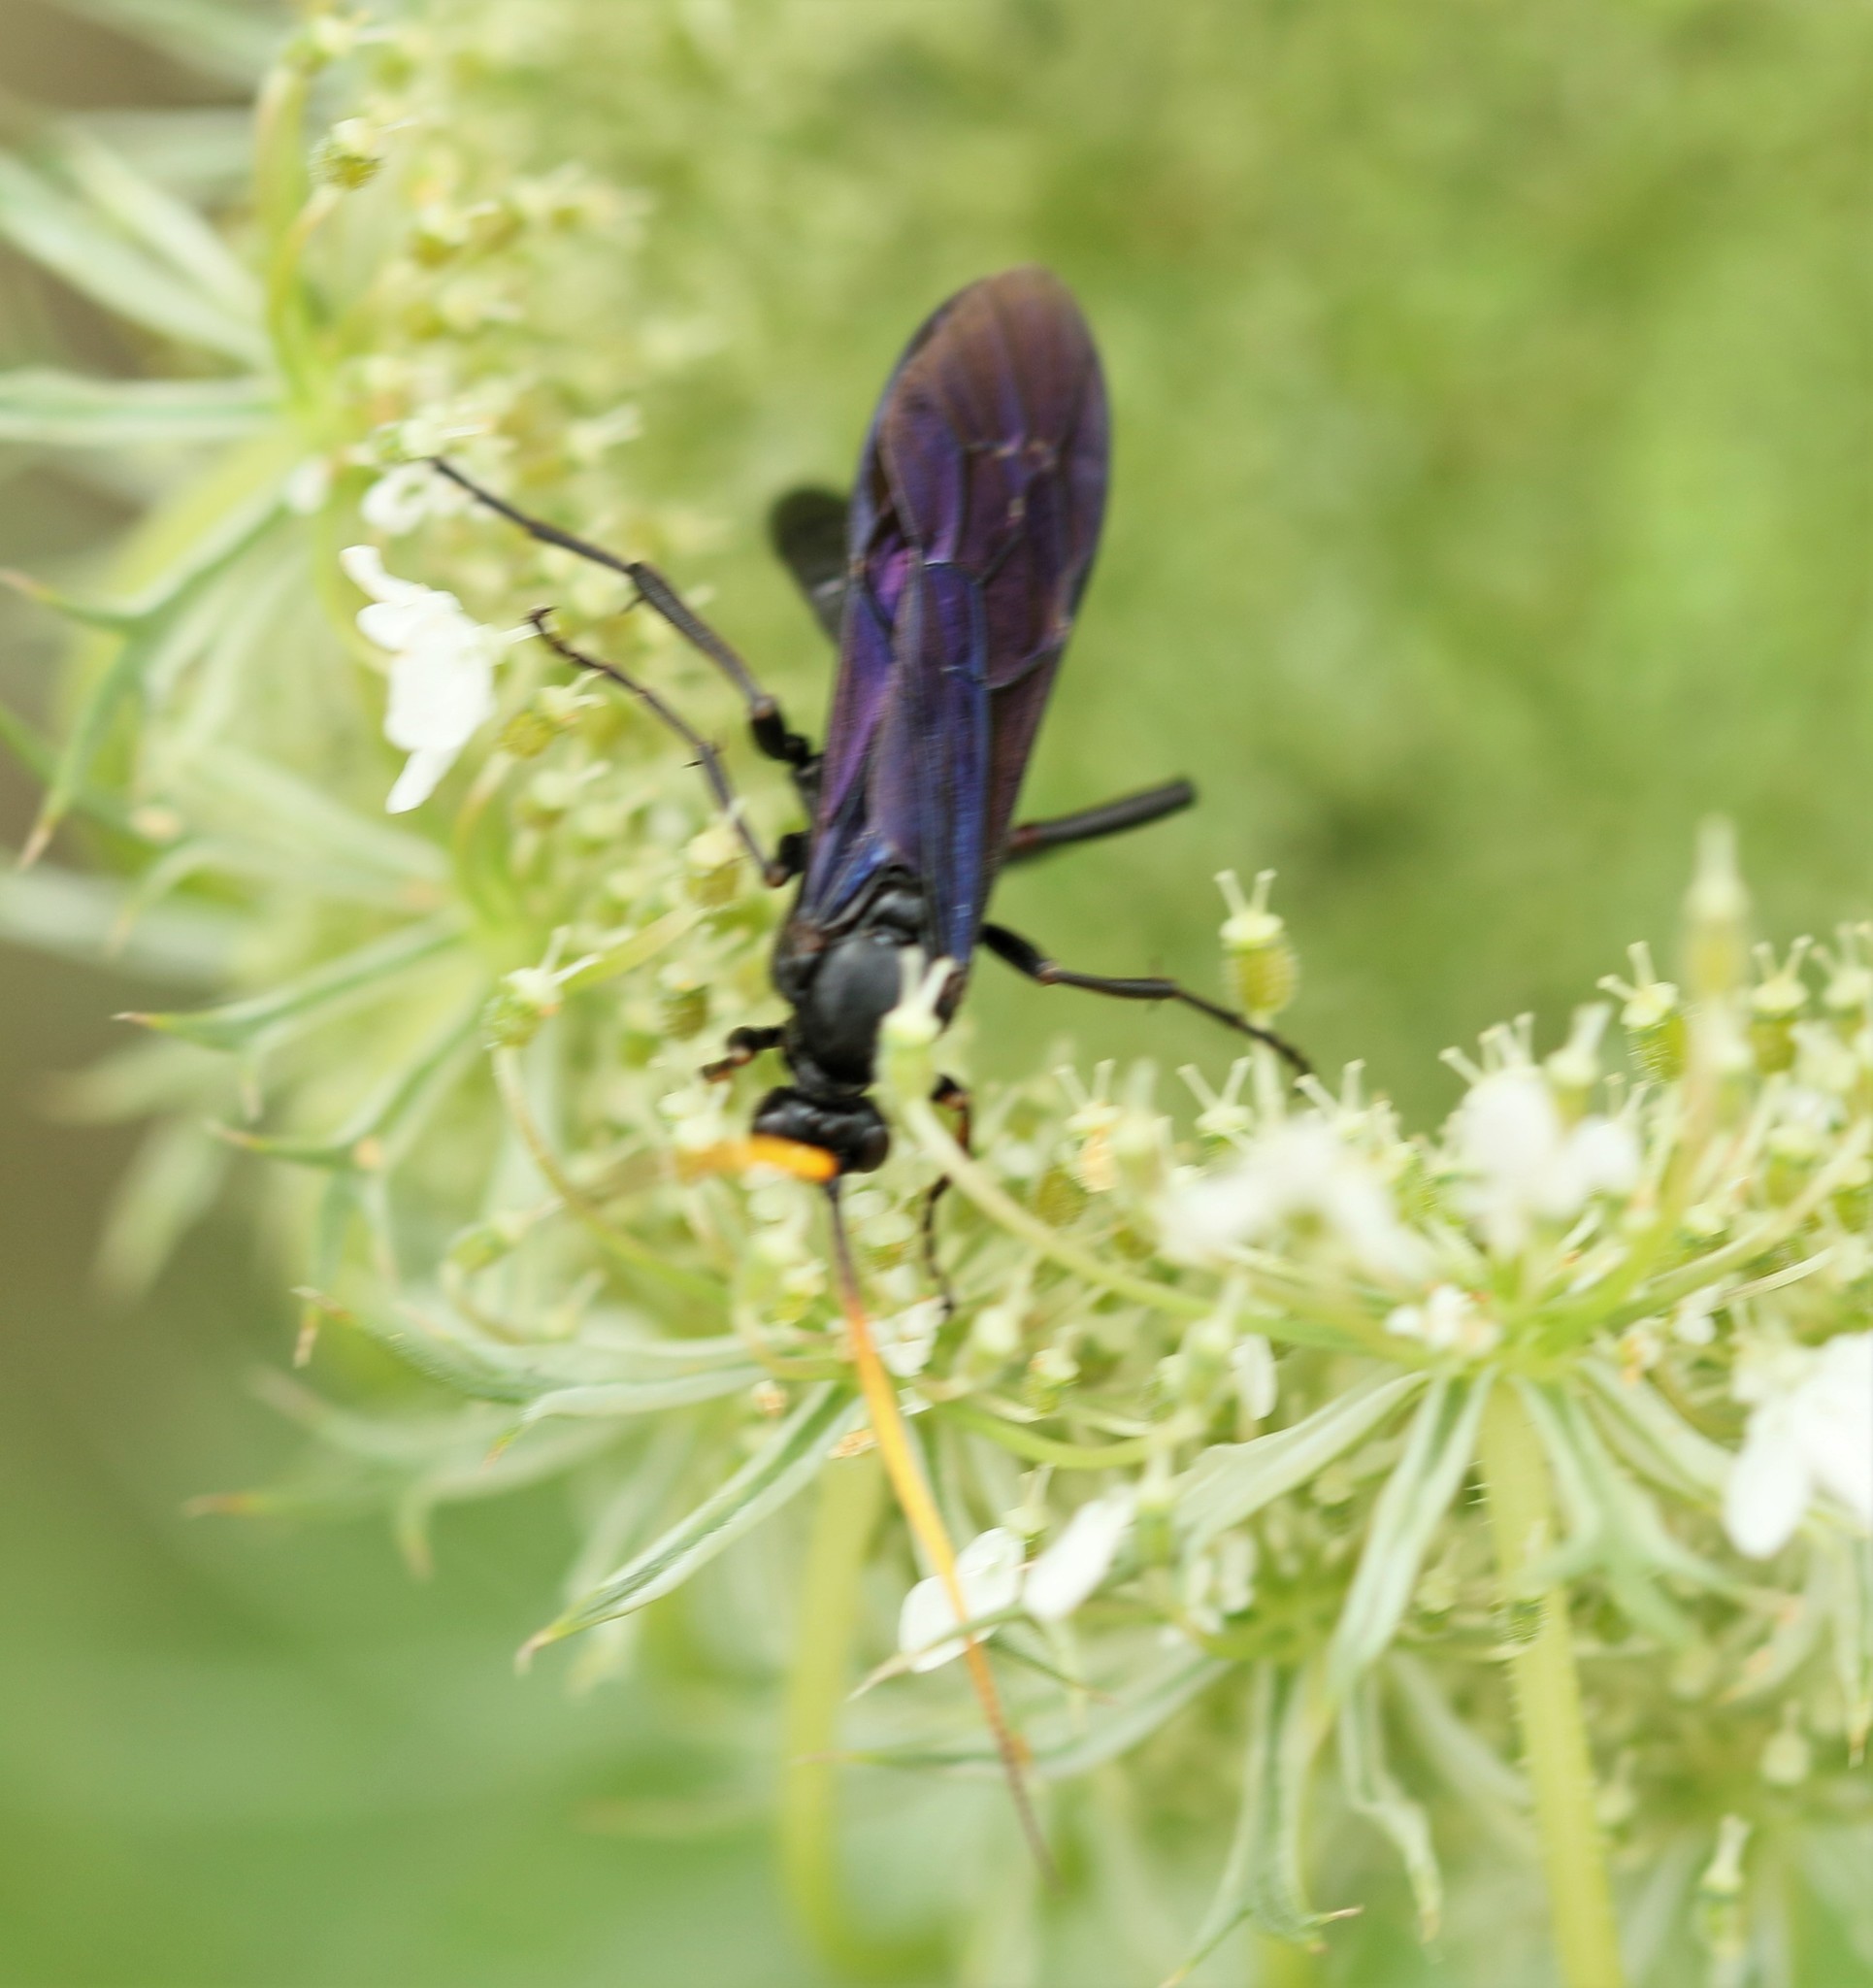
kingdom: Animalia
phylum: Arthropoda
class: Insecta
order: Hymenoptera
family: Ichneumonidae
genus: Gnamptopelta
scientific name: Gnamptopelta obsidianator
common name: Bent-shielded besieger wasp
